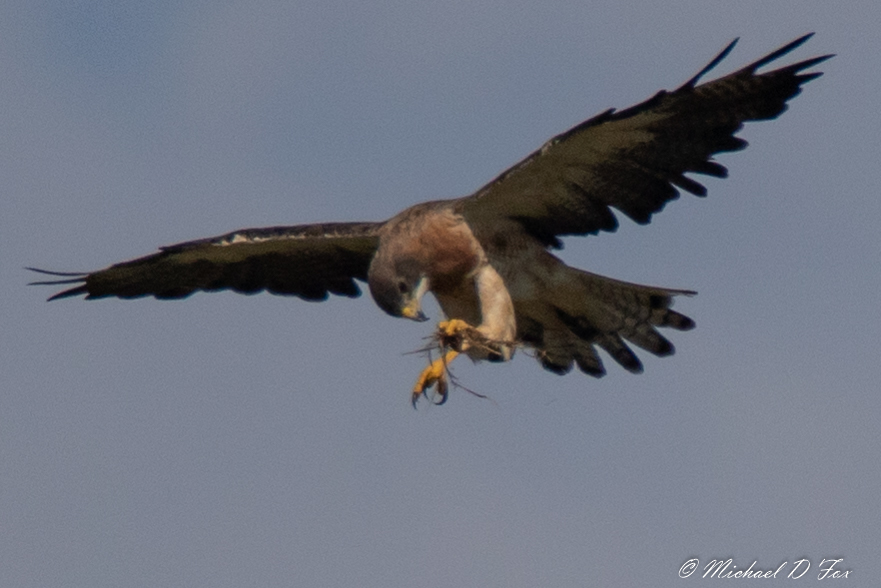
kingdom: Animalia
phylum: Chordata
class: Aves
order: Accipitriformes
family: Accipitridae
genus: Buteo
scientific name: Buteo swainsoni
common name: Swainson's hawk
